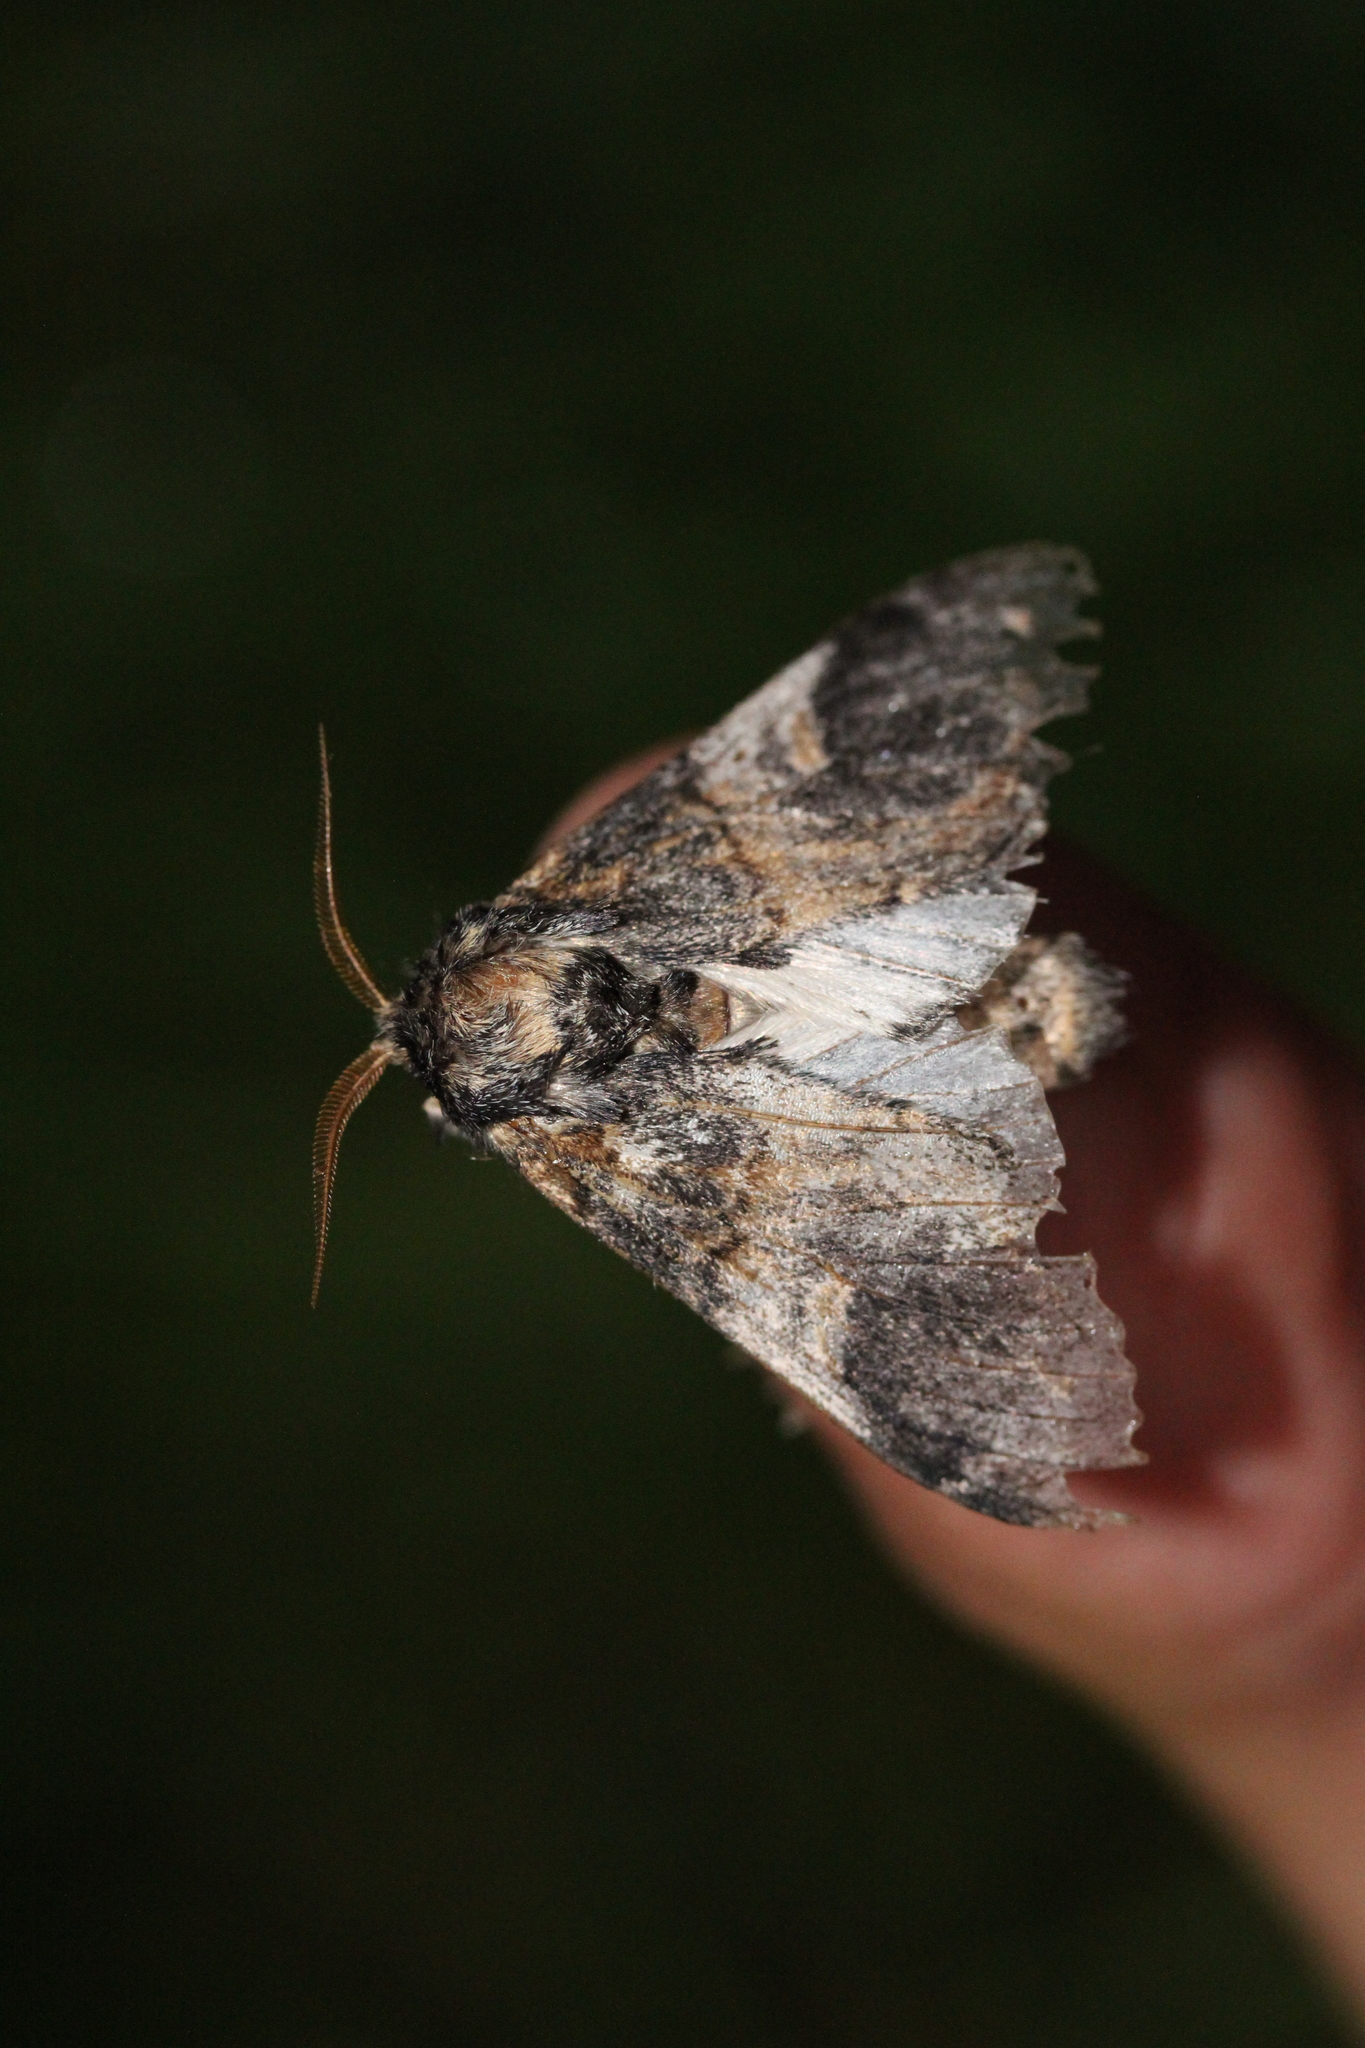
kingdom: Animalia
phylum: Arthropoda
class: Insecta
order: Lepidoptera
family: Notodontidae
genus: Notodonta
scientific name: Notodonta tritophus
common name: Three-humped prominent
